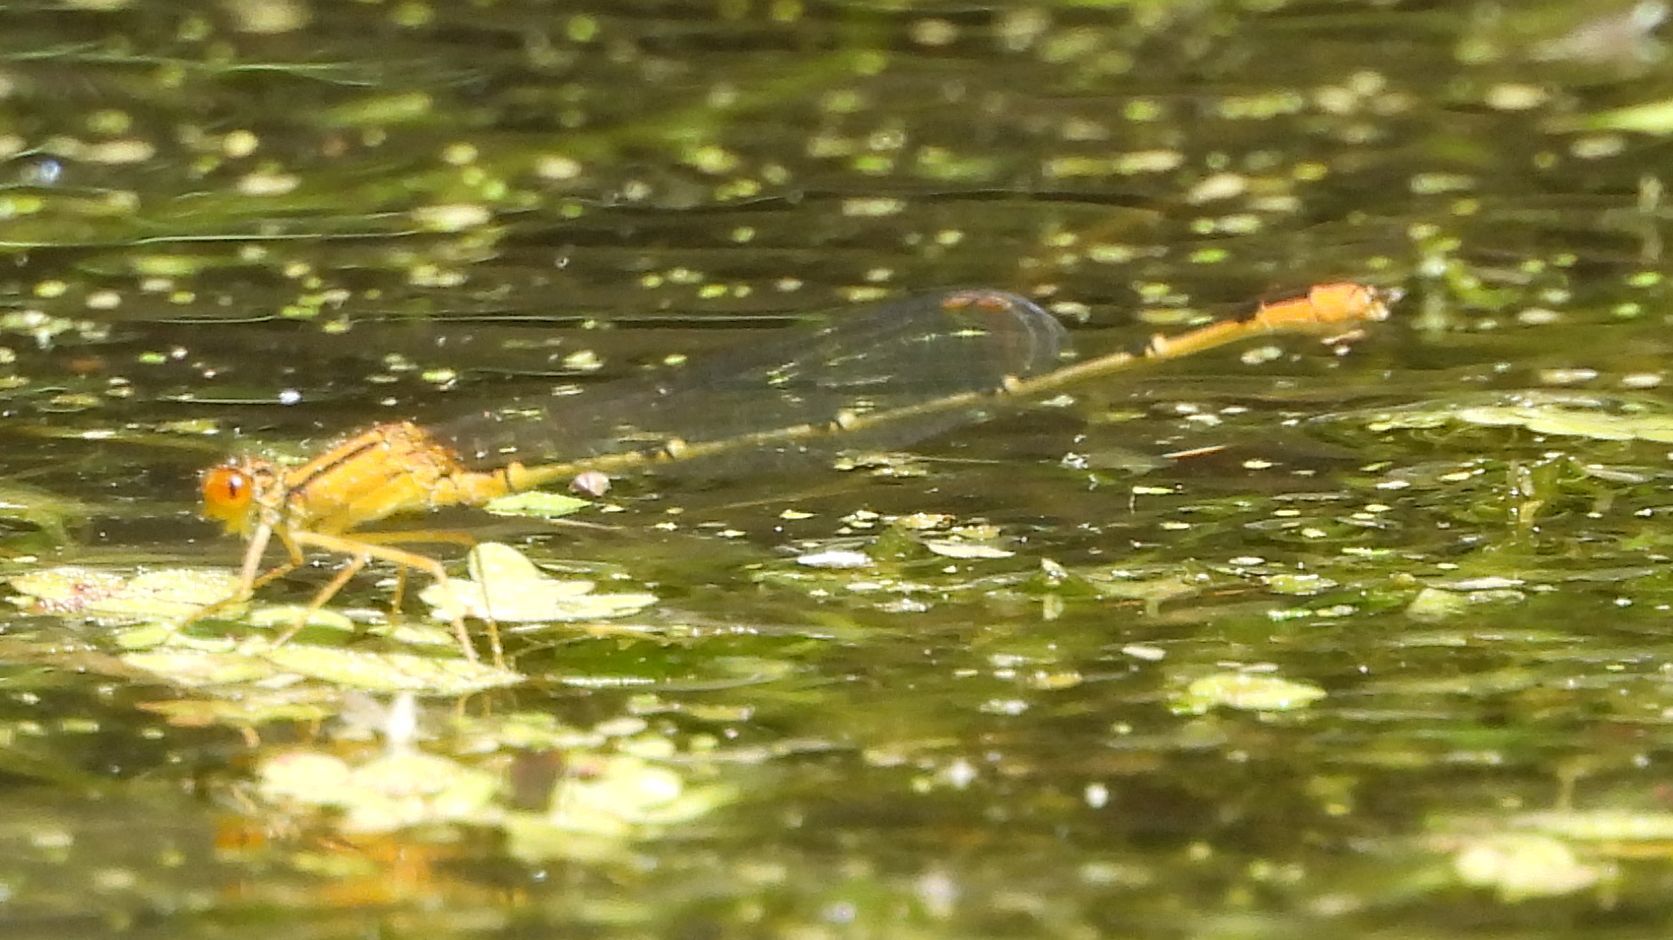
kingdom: Animalia
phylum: Arthropoda
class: Insecta
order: Odonata
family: Coenagrionidae
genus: Enallagma
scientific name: Enallagma signatum
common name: Orange bluet
